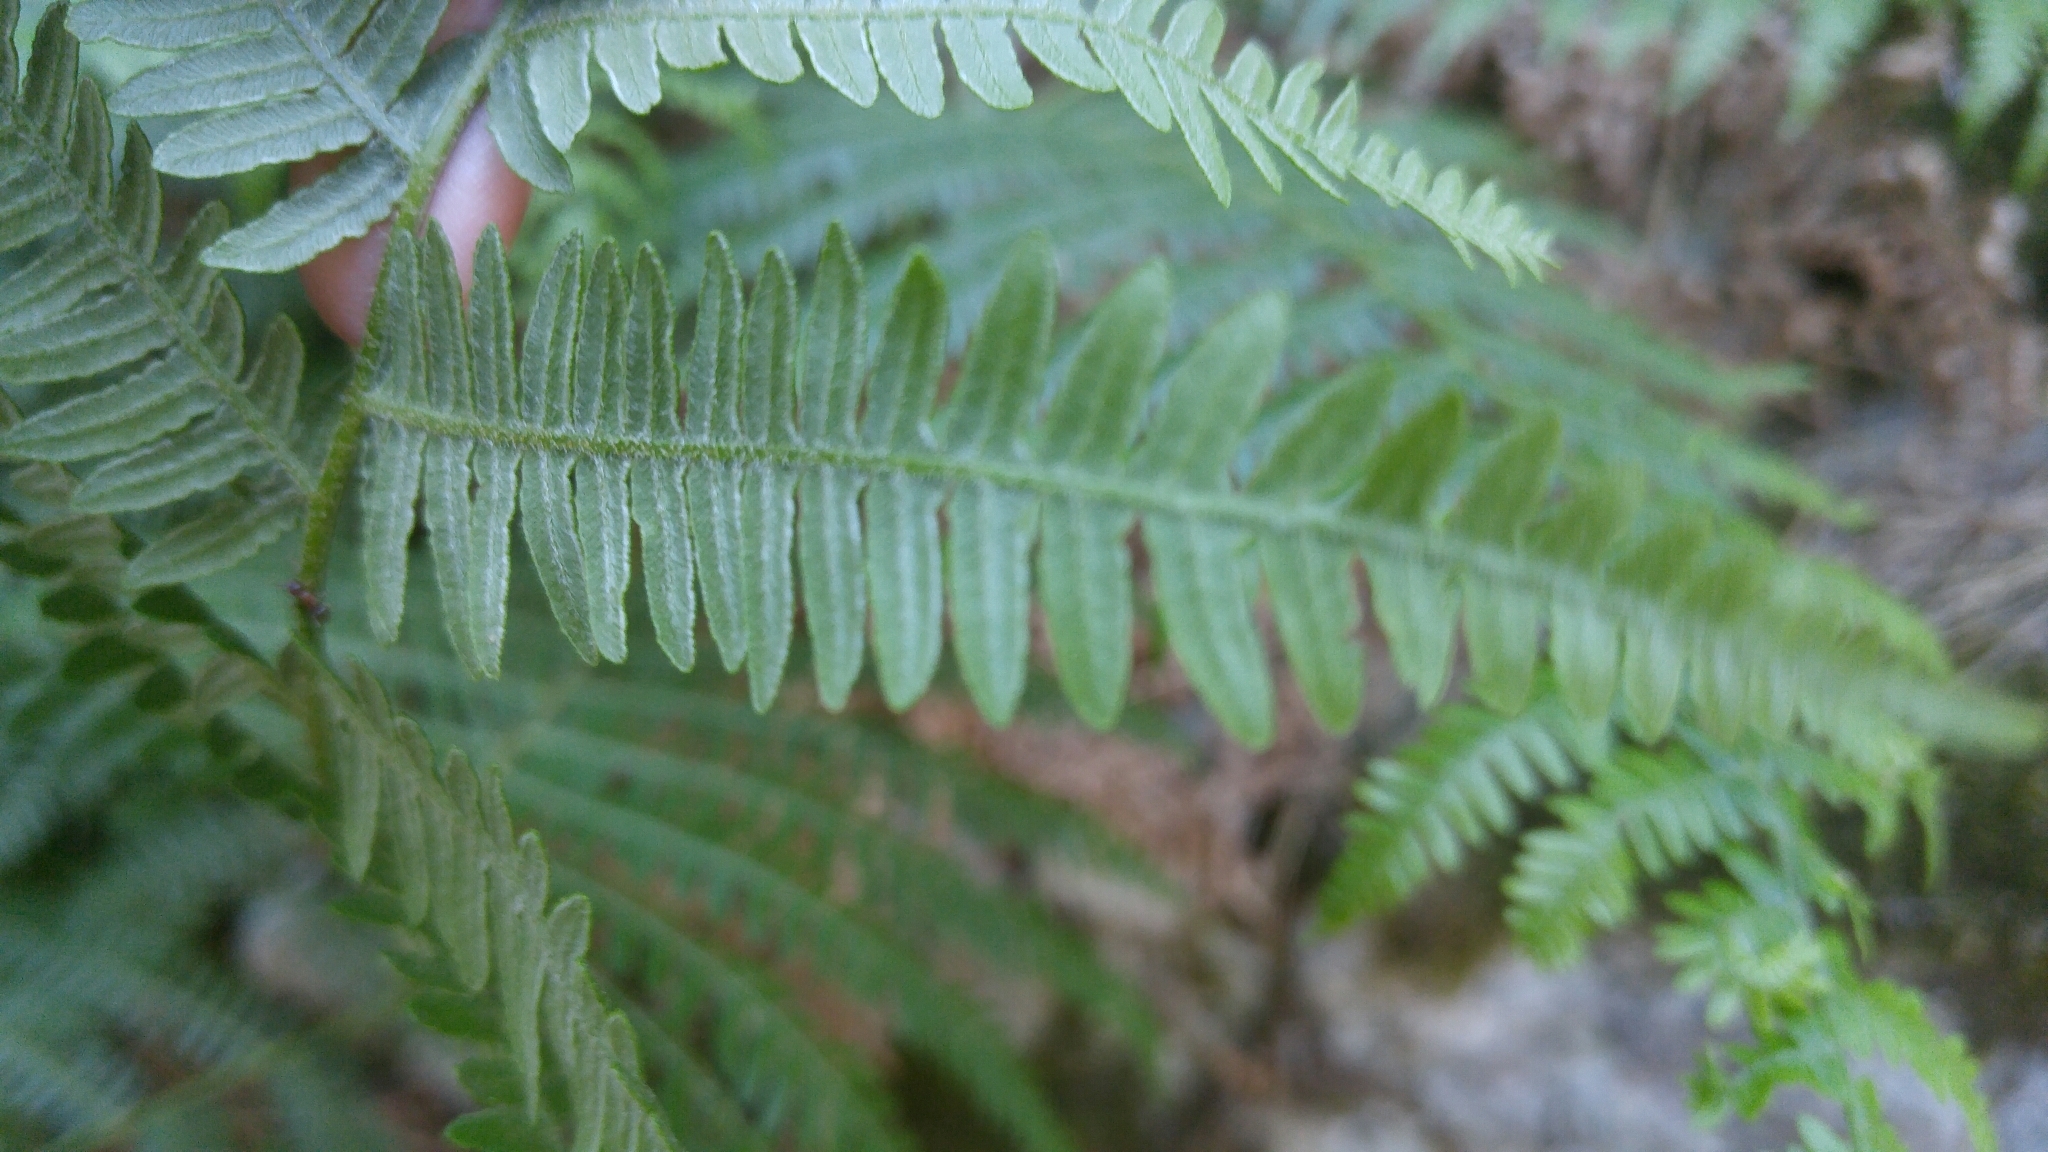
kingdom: Plantae
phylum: Tracheophyta
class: Polypodiopsida
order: Polypodiales
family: Dennstaedtiaceae
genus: Pteridium
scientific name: Pteridium aquilinum
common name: Bracken
